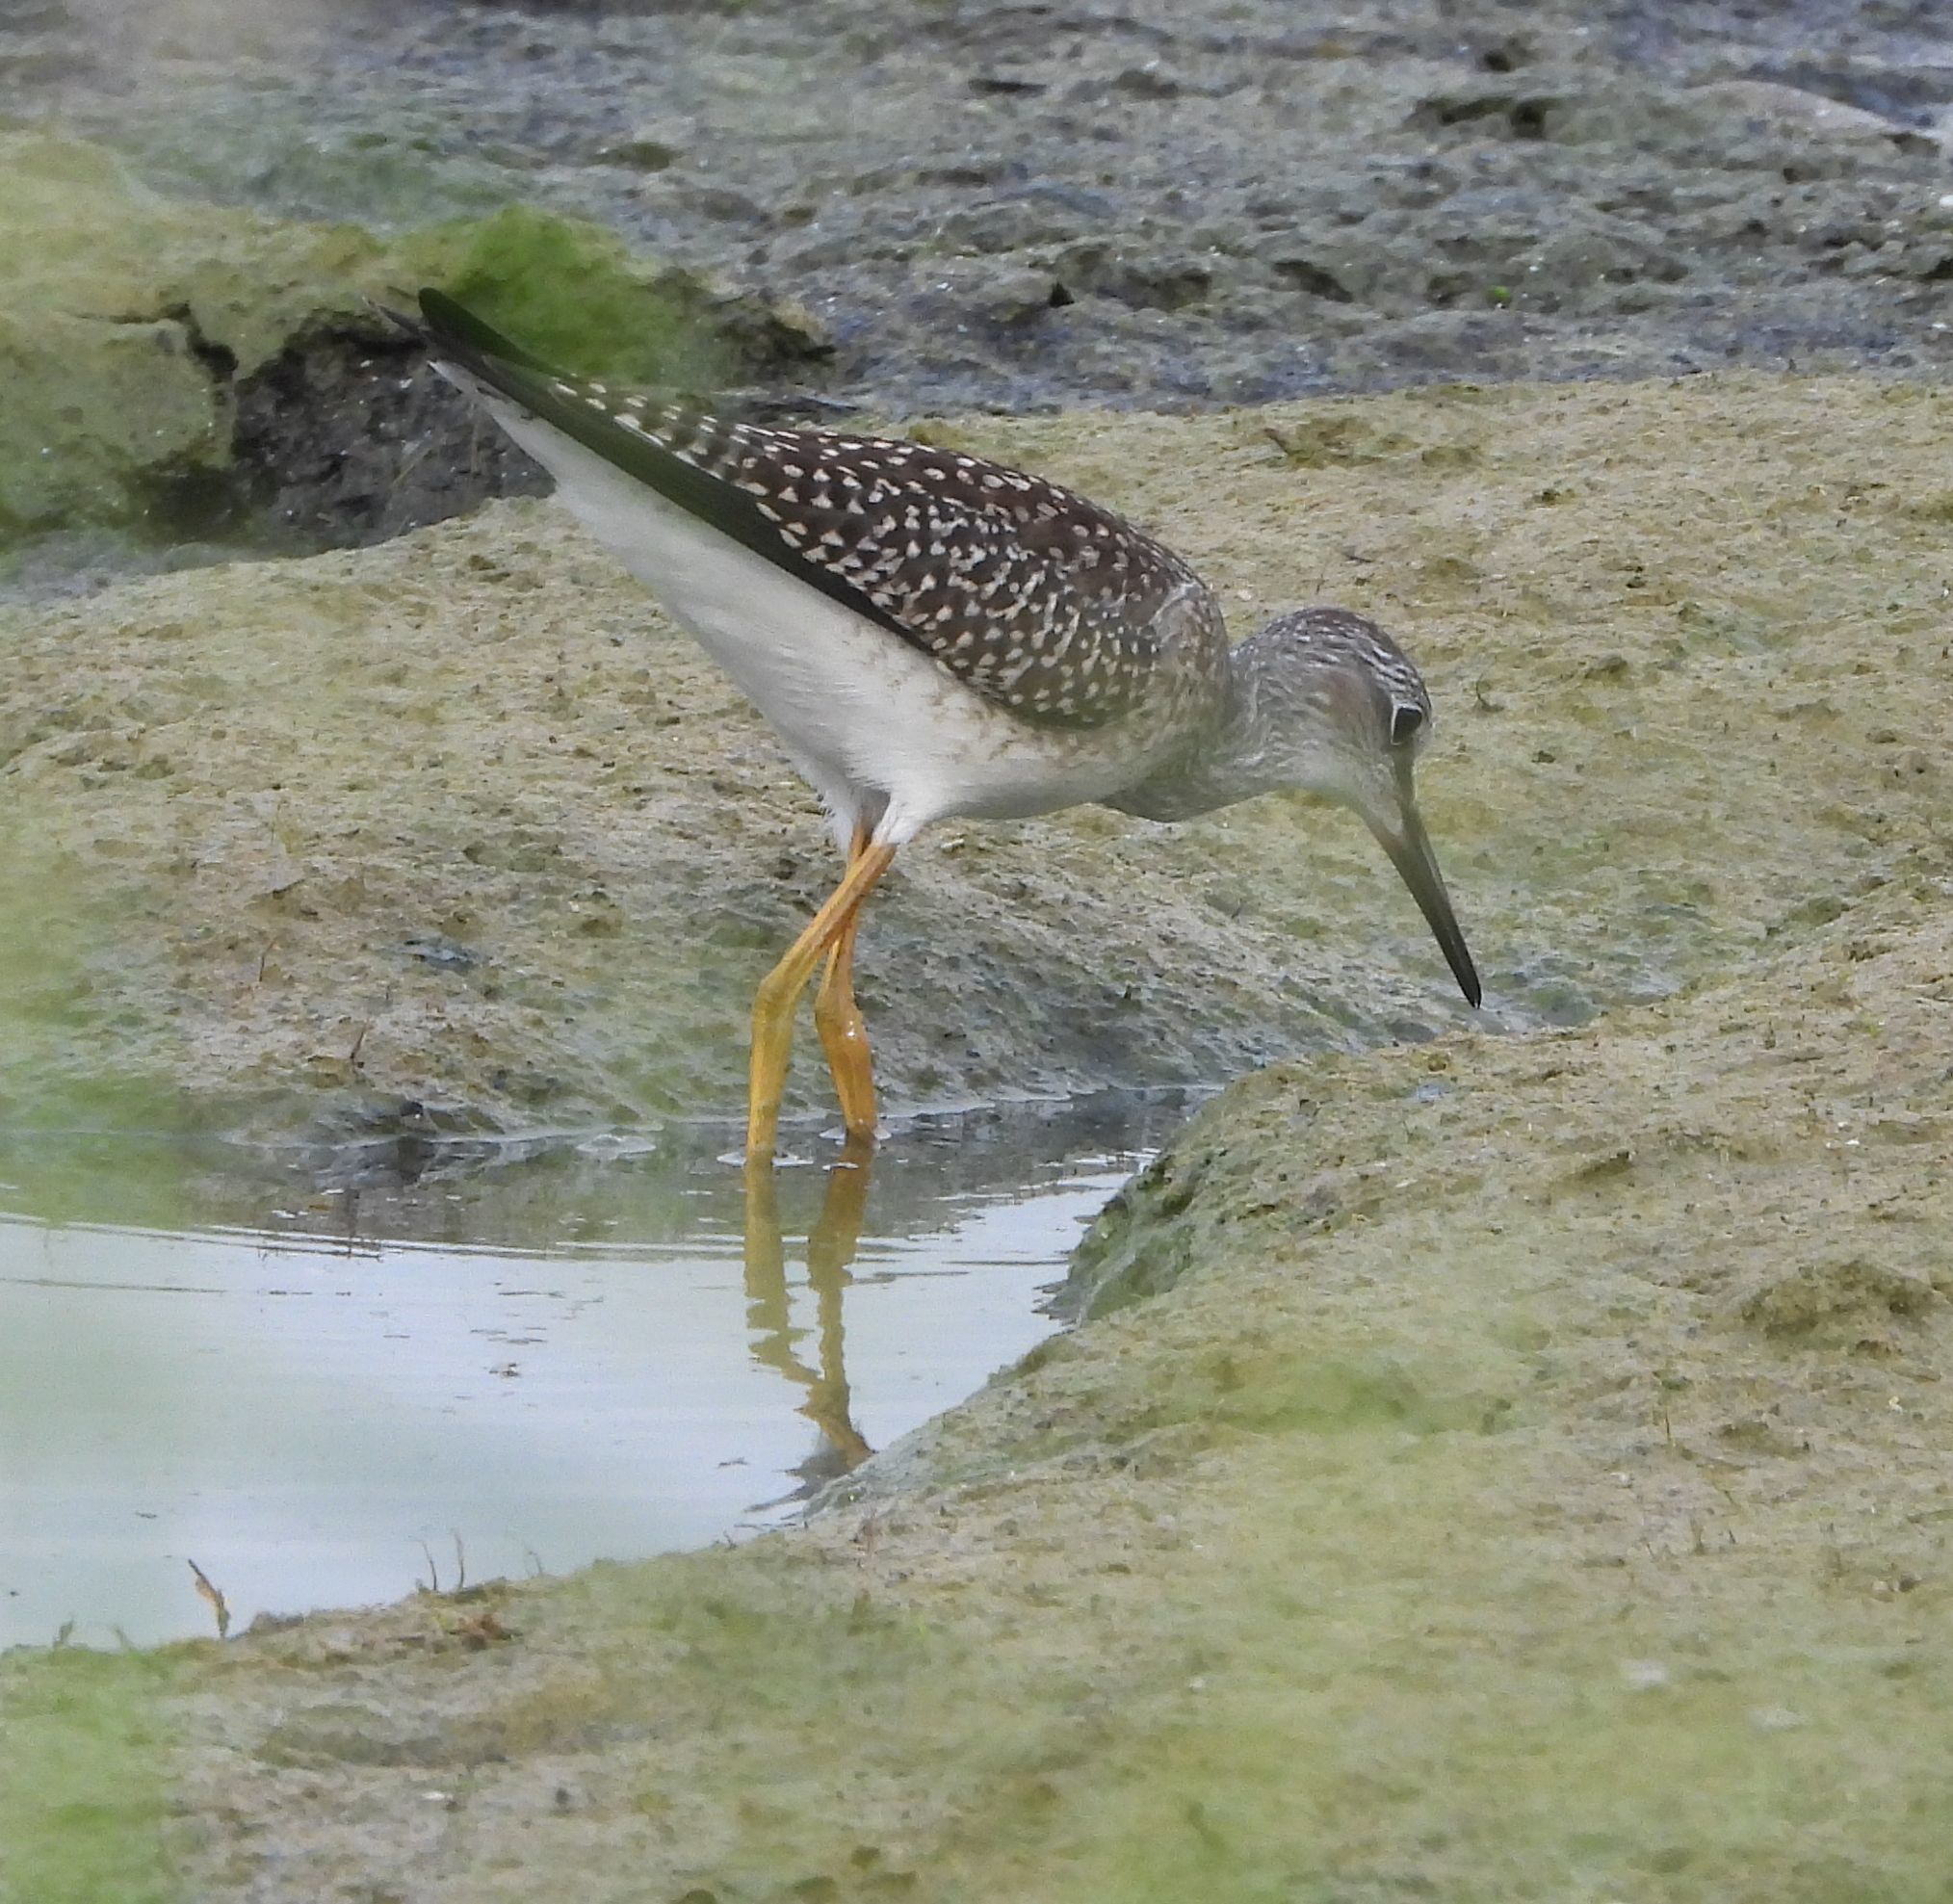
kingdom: Animalia
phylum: Chordata
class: Aves
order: Charadriiformes
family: Scolopacidae
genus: Tringa
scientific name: Tringa flavipes
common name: Lesser yellowlegs
